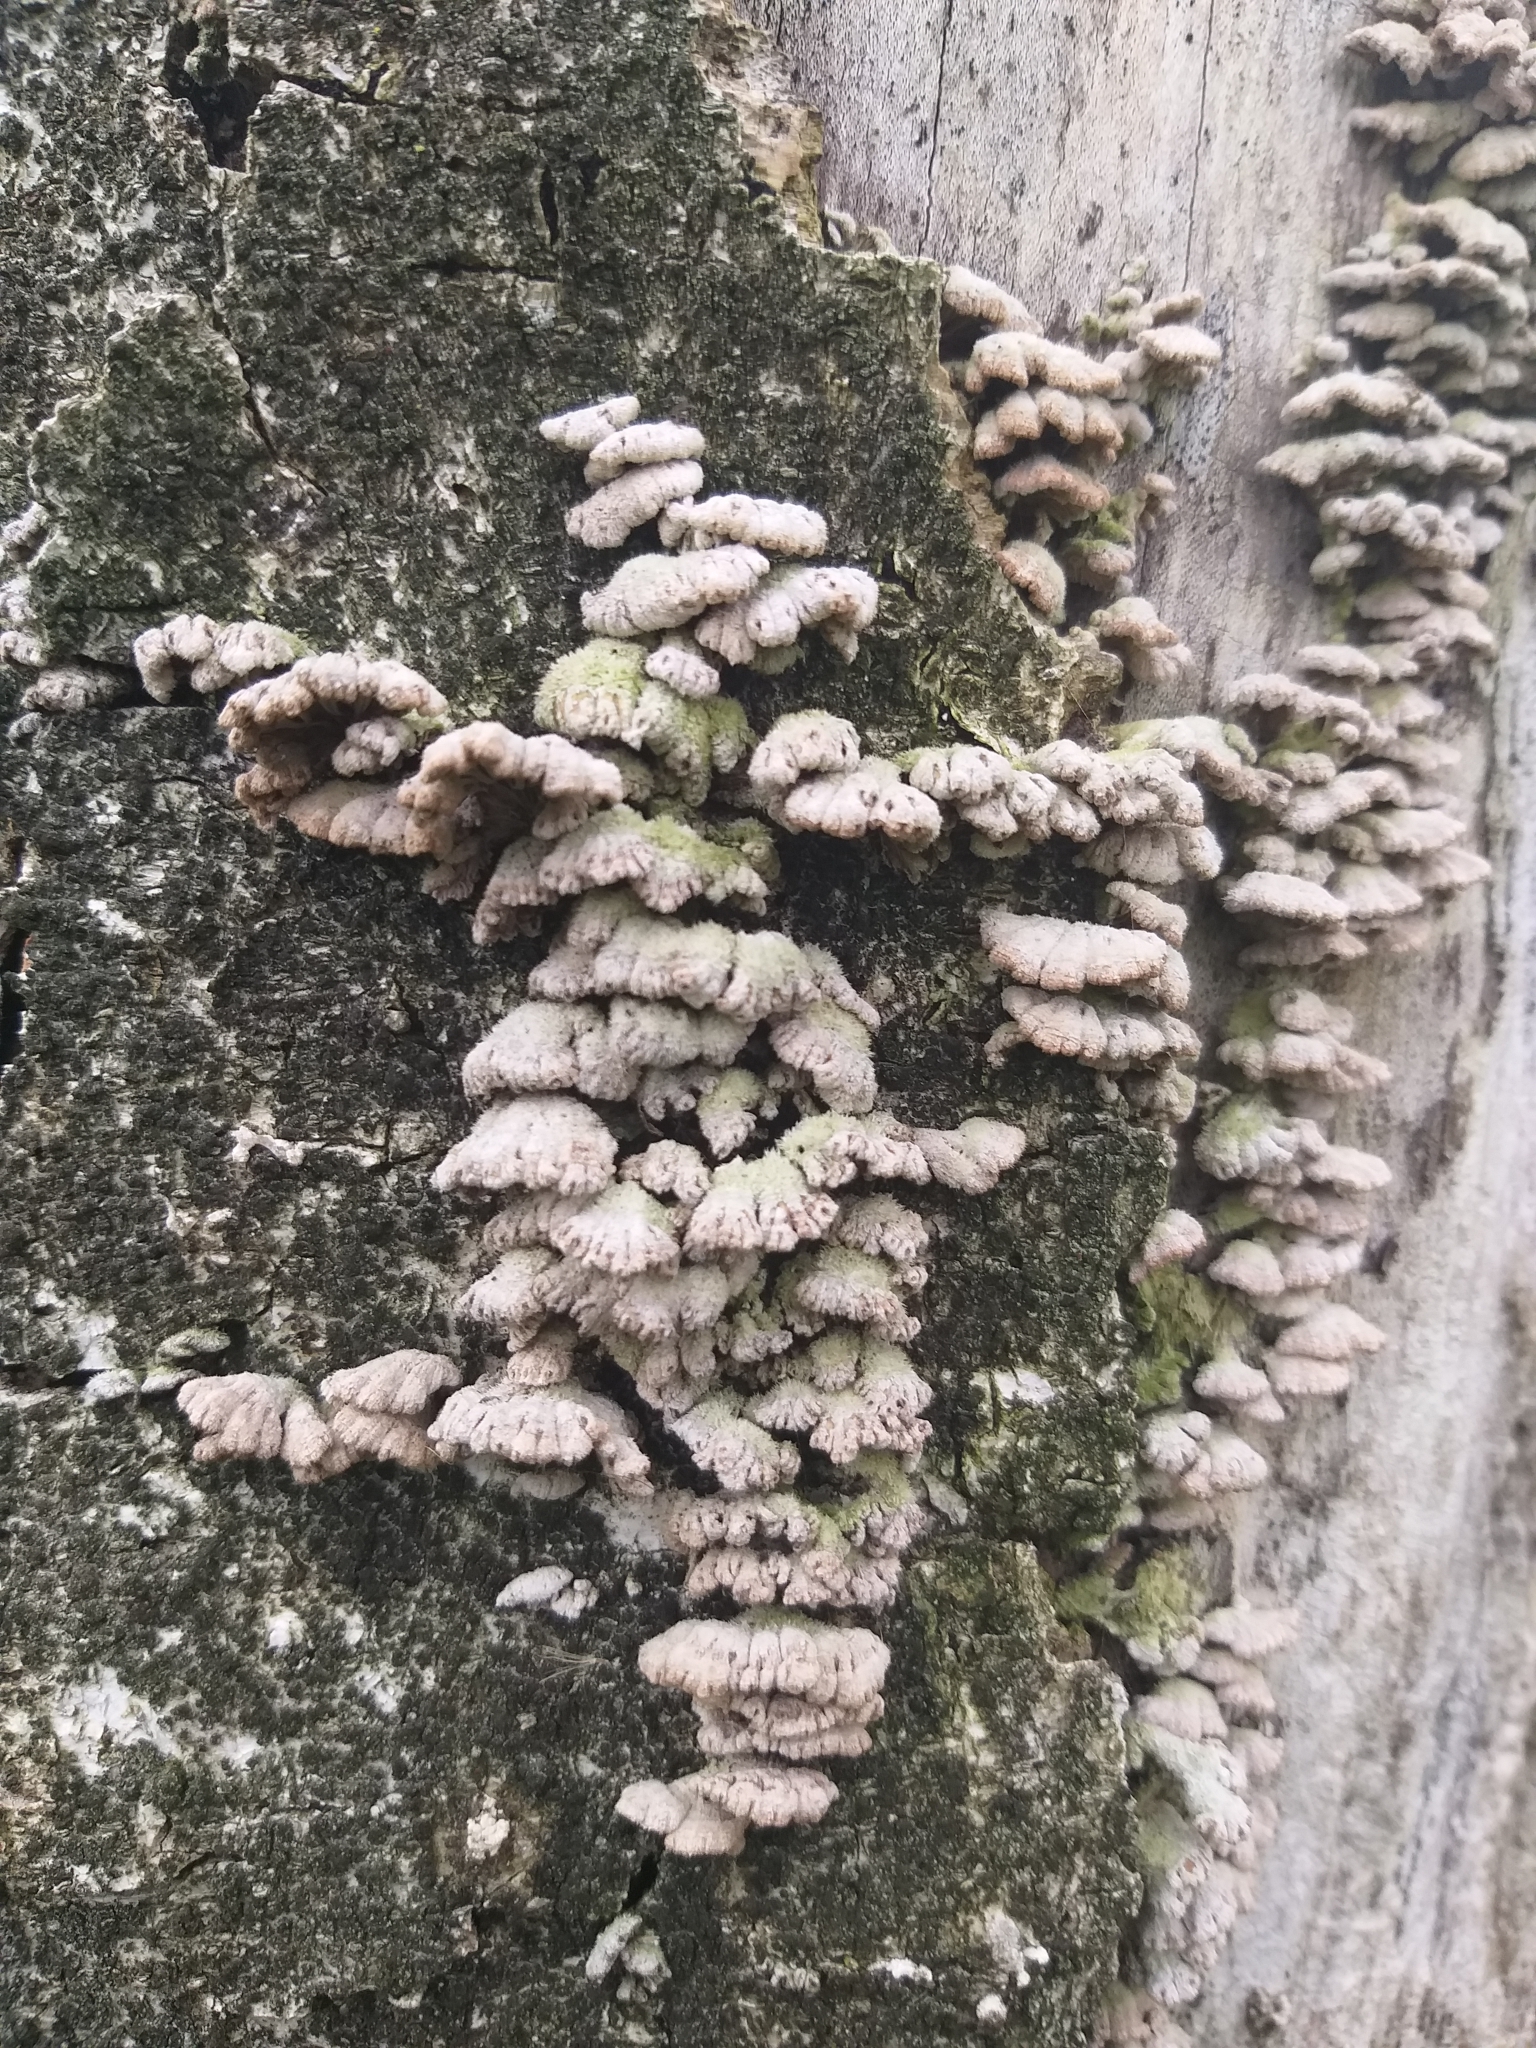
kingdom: Fungi
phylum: Basidiomycota
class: Agaricomycetes
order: Agaricales
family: Schizophyllaceae
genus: Schizophyllum
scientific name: Schizophyllum commune
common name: Common porecrust
